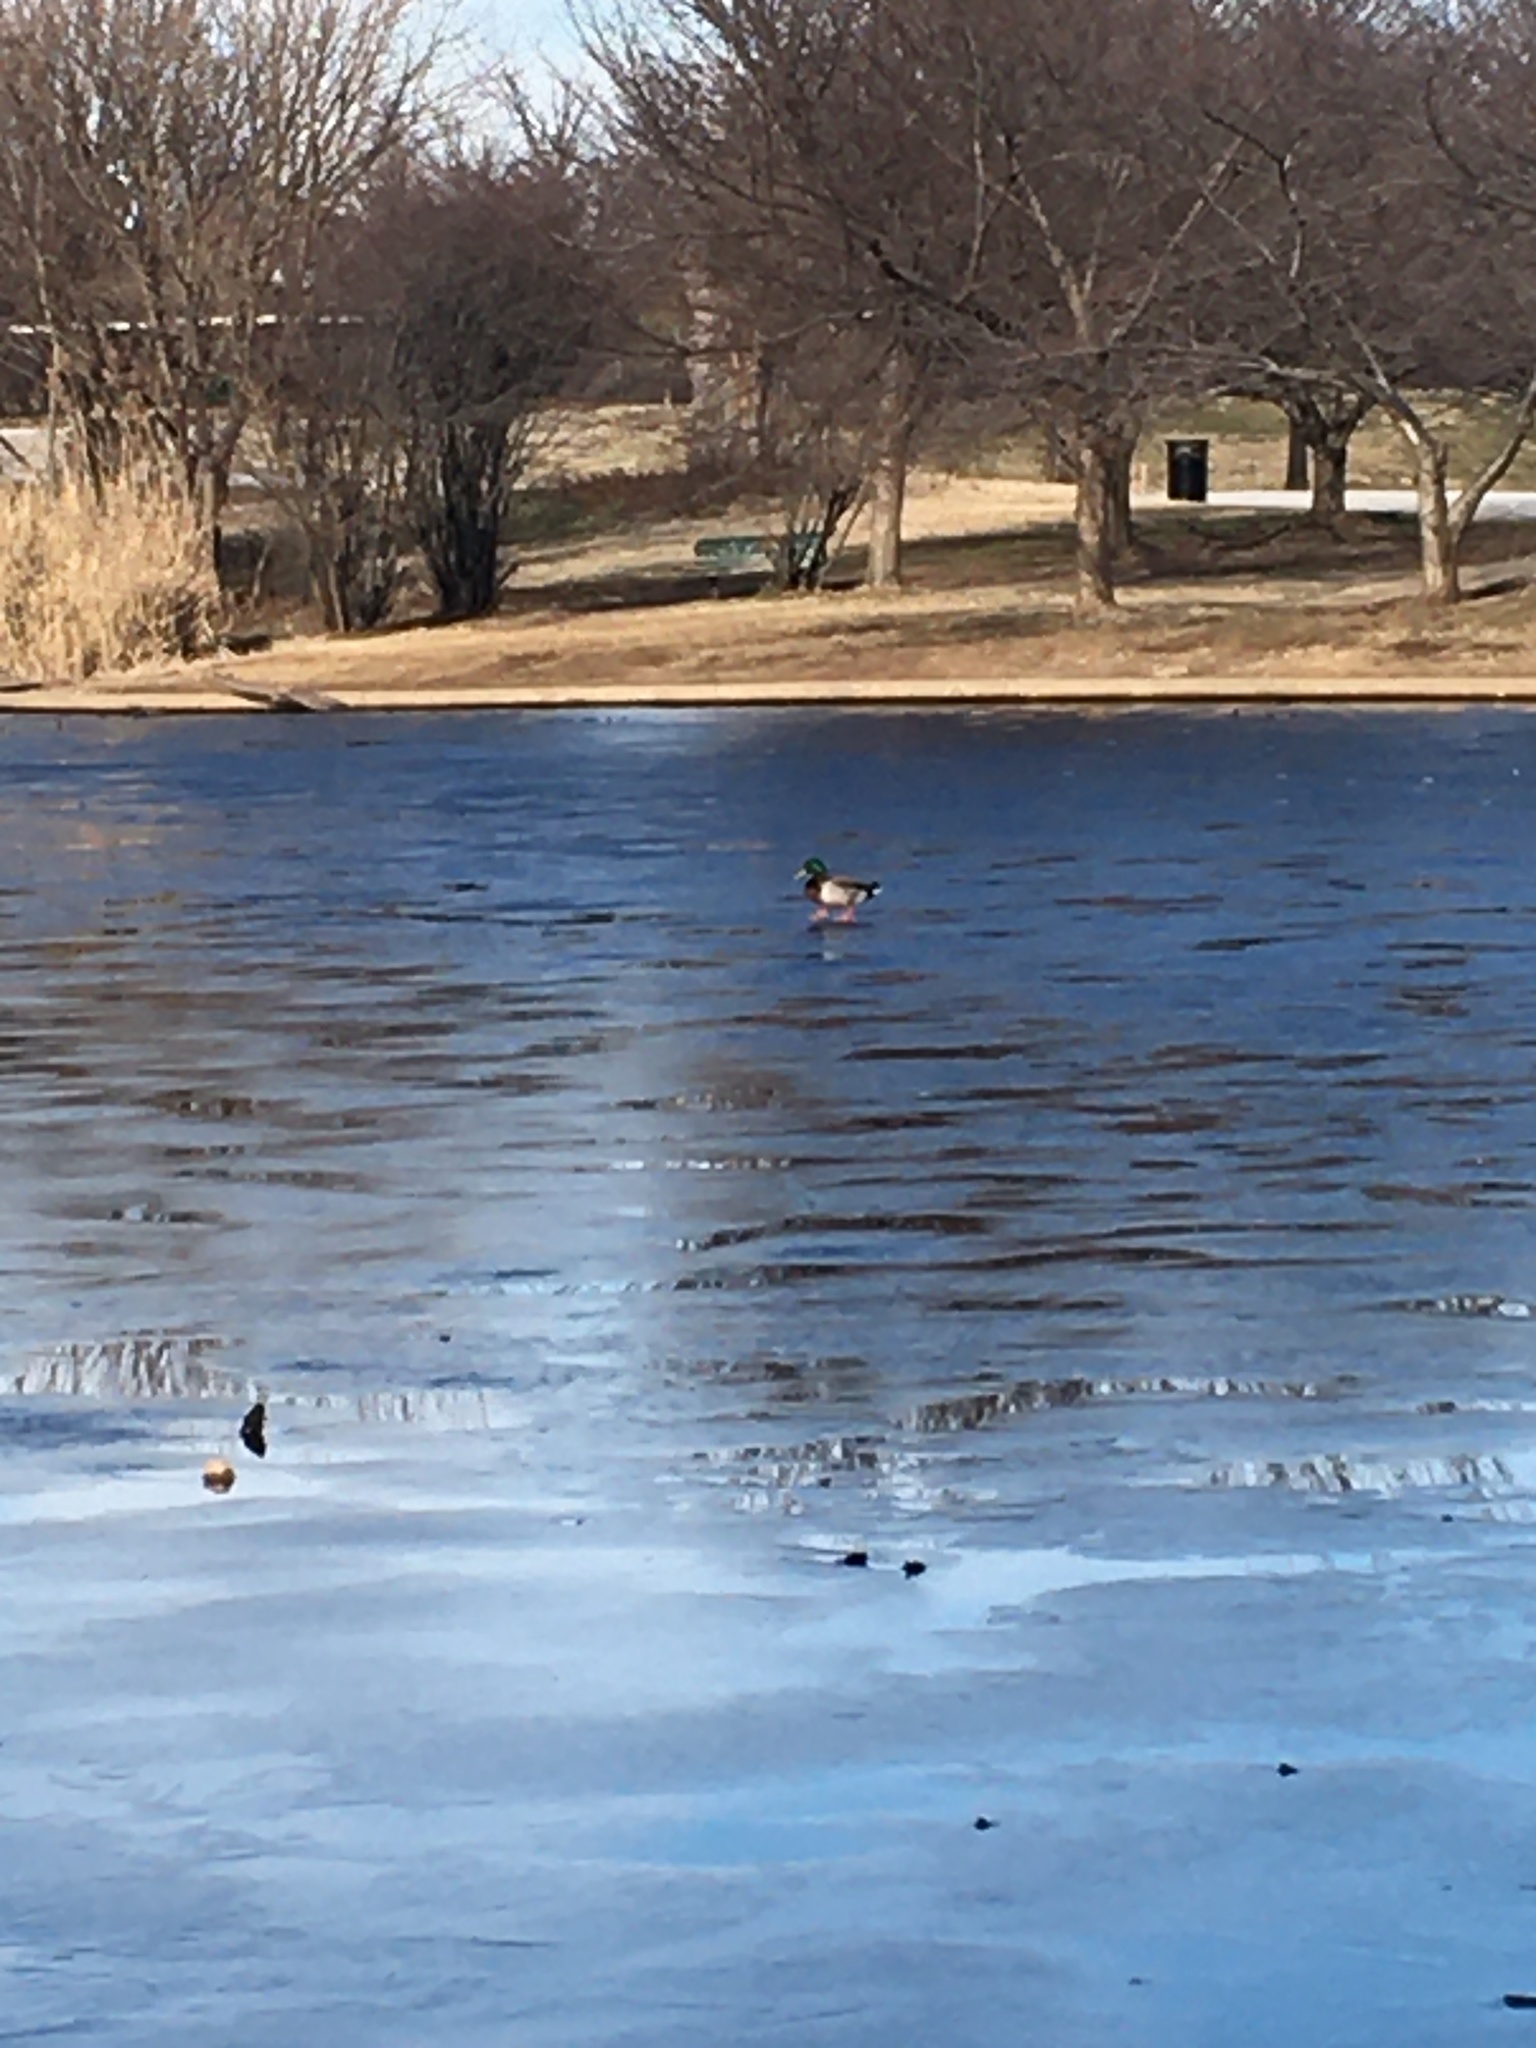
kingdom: Animalia
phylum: Chordata
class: Aves
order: Anseriformes
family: Anatidae
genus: Anas
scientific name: Anas platyrhynchos
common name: Mallard
